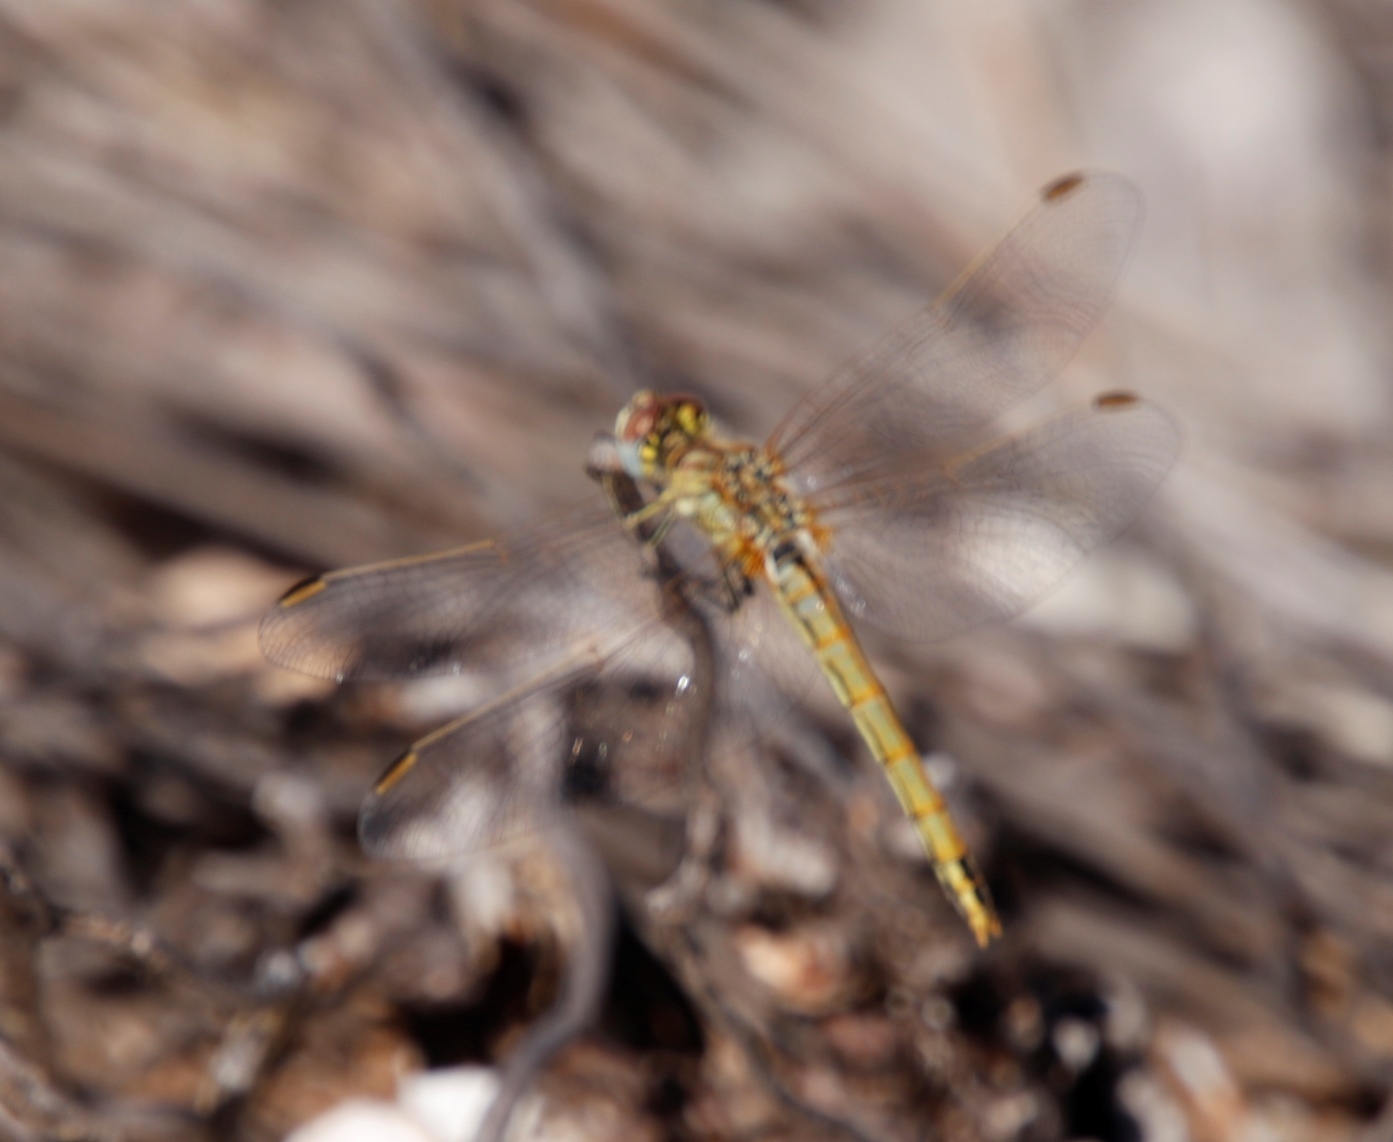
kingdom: Animalia
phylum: Arthropoda
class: Insecta
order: Odonata
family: Libellulidae
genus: Sympetrum
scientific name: Sympetrum fonscolombii
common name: Red-veined darter
